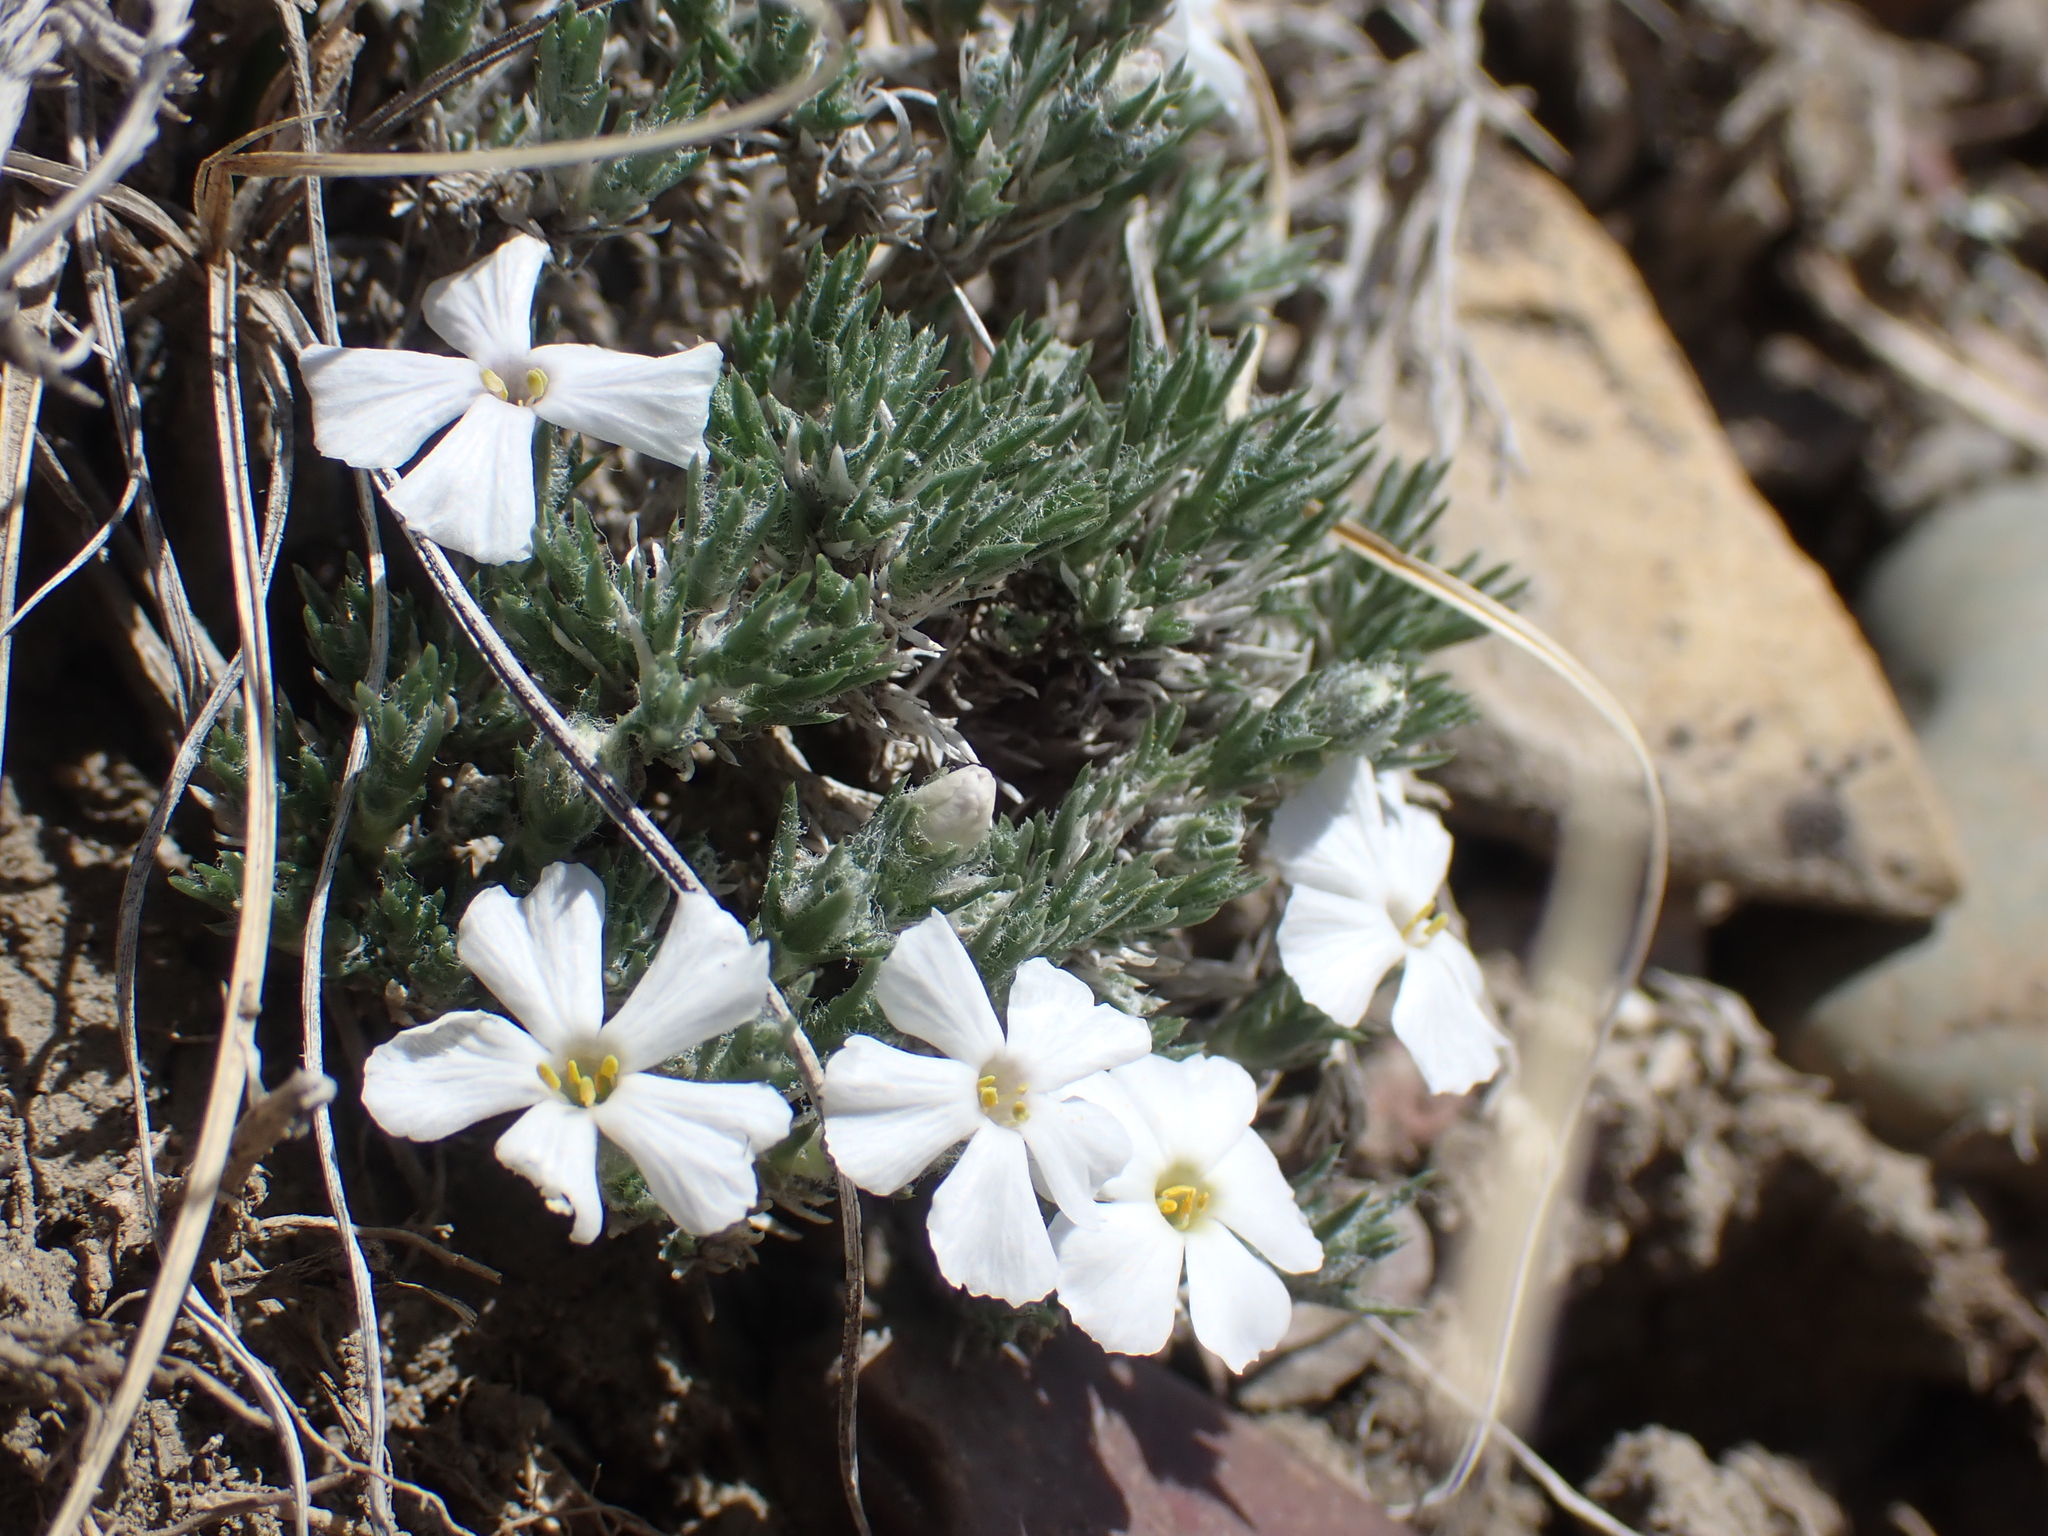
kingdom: Plantae
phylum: Tracheophyta
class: Magnoliopsida
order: Ericales
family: Polemoniaceae
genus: Phlox
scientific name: Phlox hoodii
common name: Moss phlox
